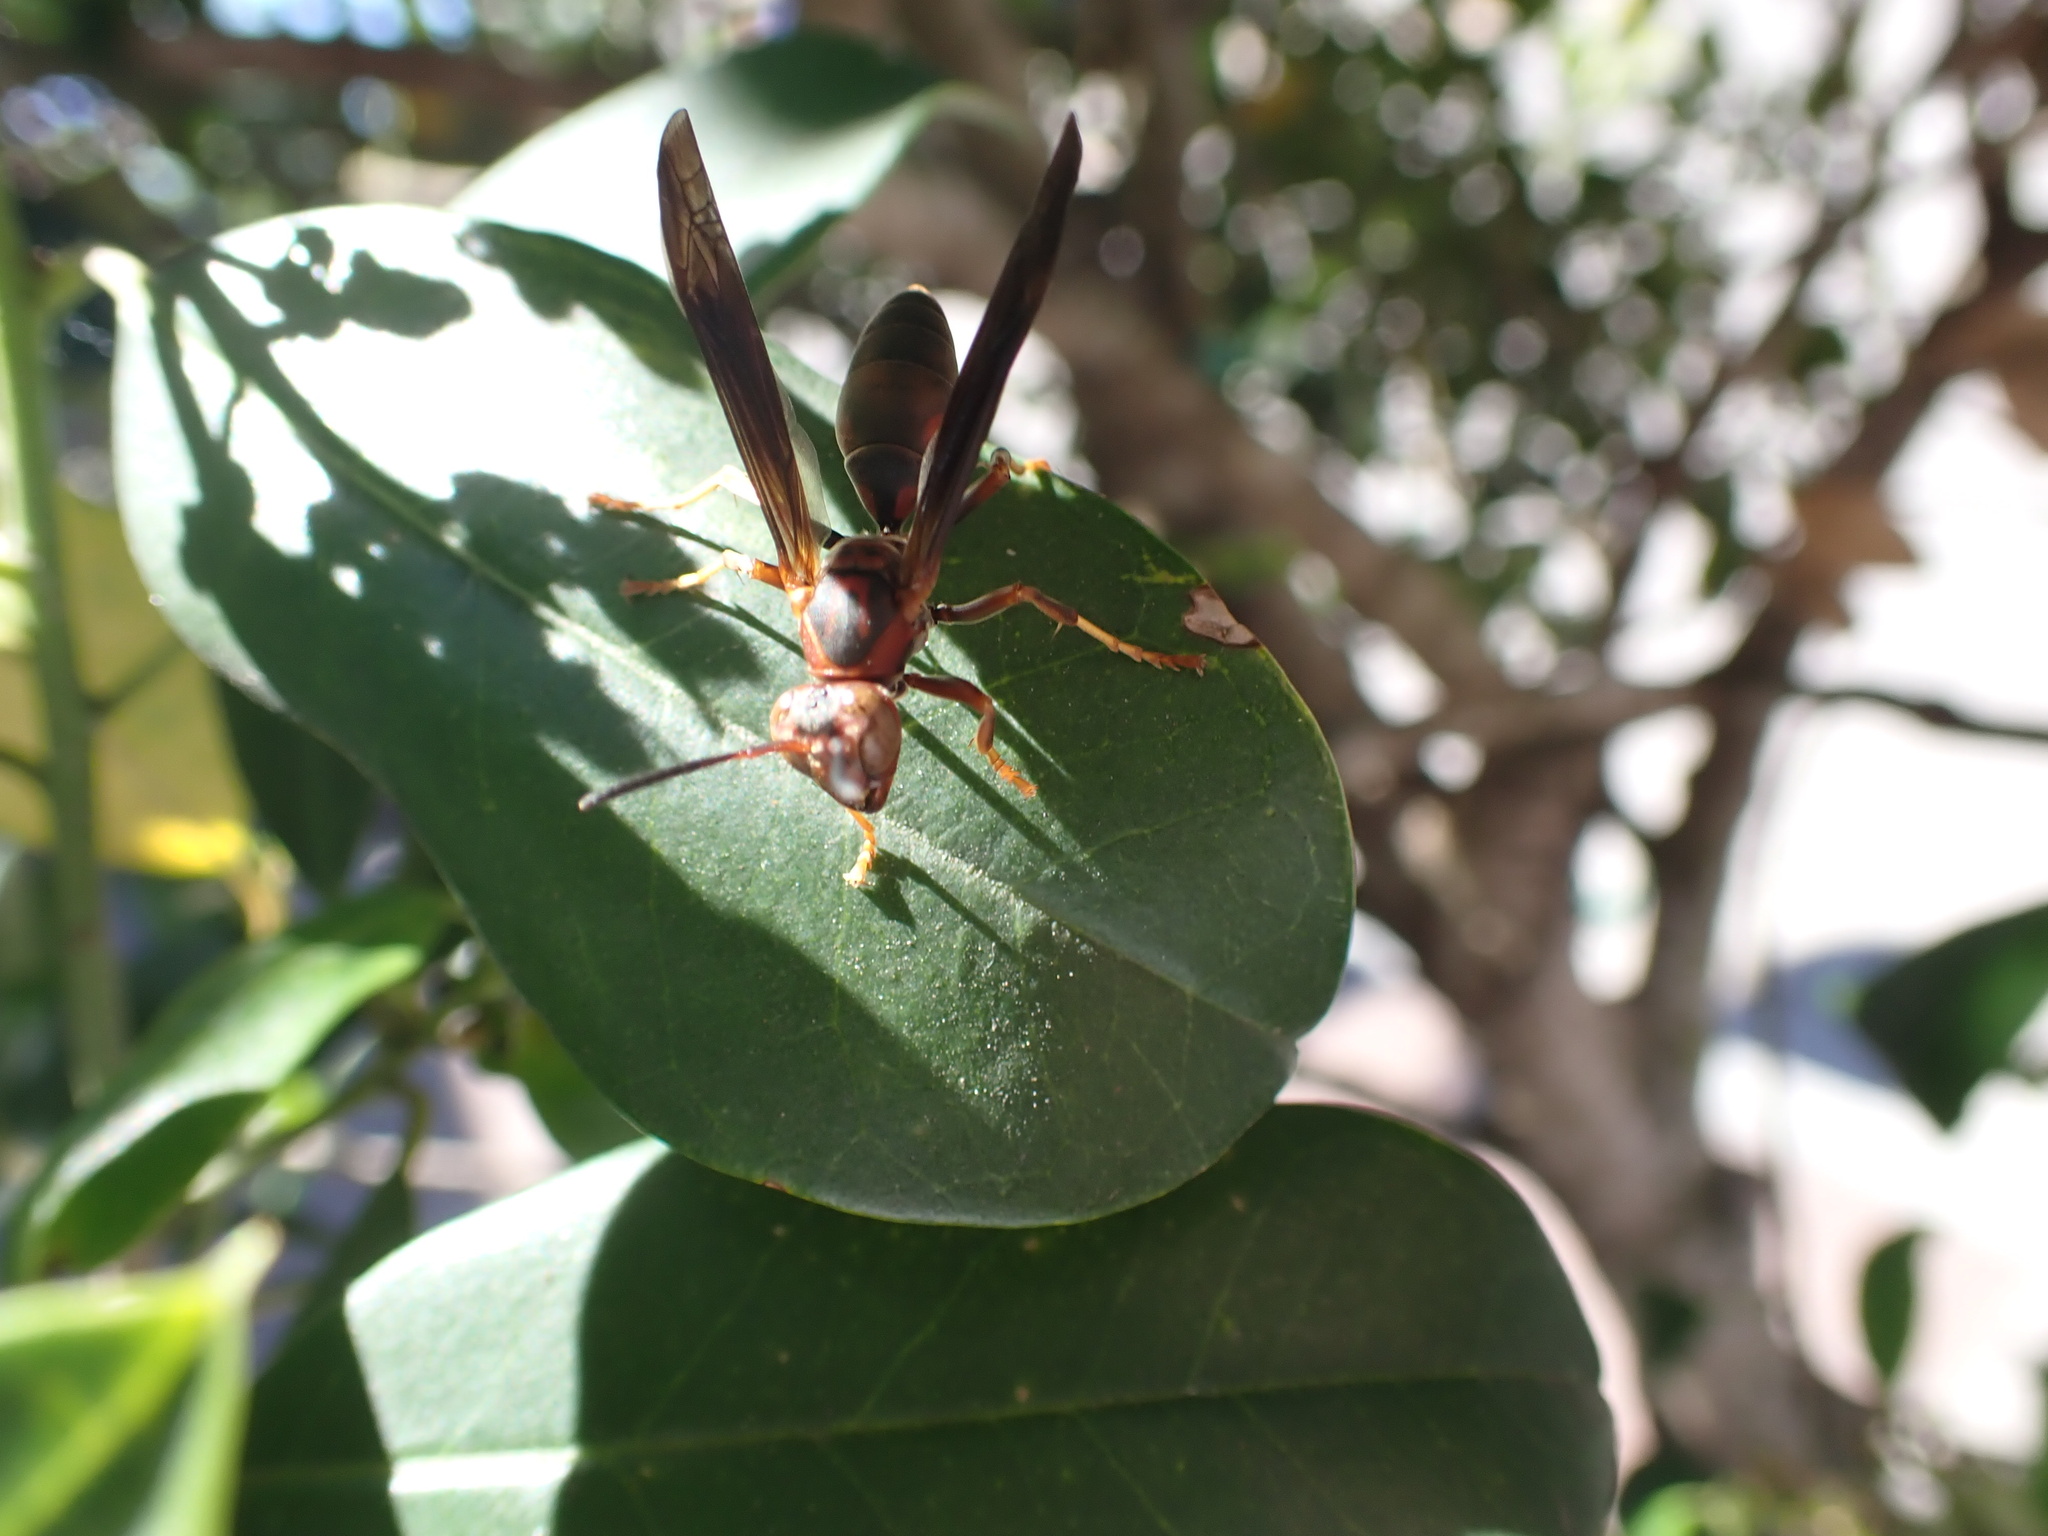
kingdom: Animalia
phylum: Arthropoda
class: Insecta
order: Hymenoptera
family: Eumenidae
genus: Polistes
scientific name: Polistes metricus
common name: Metric paper wasp
